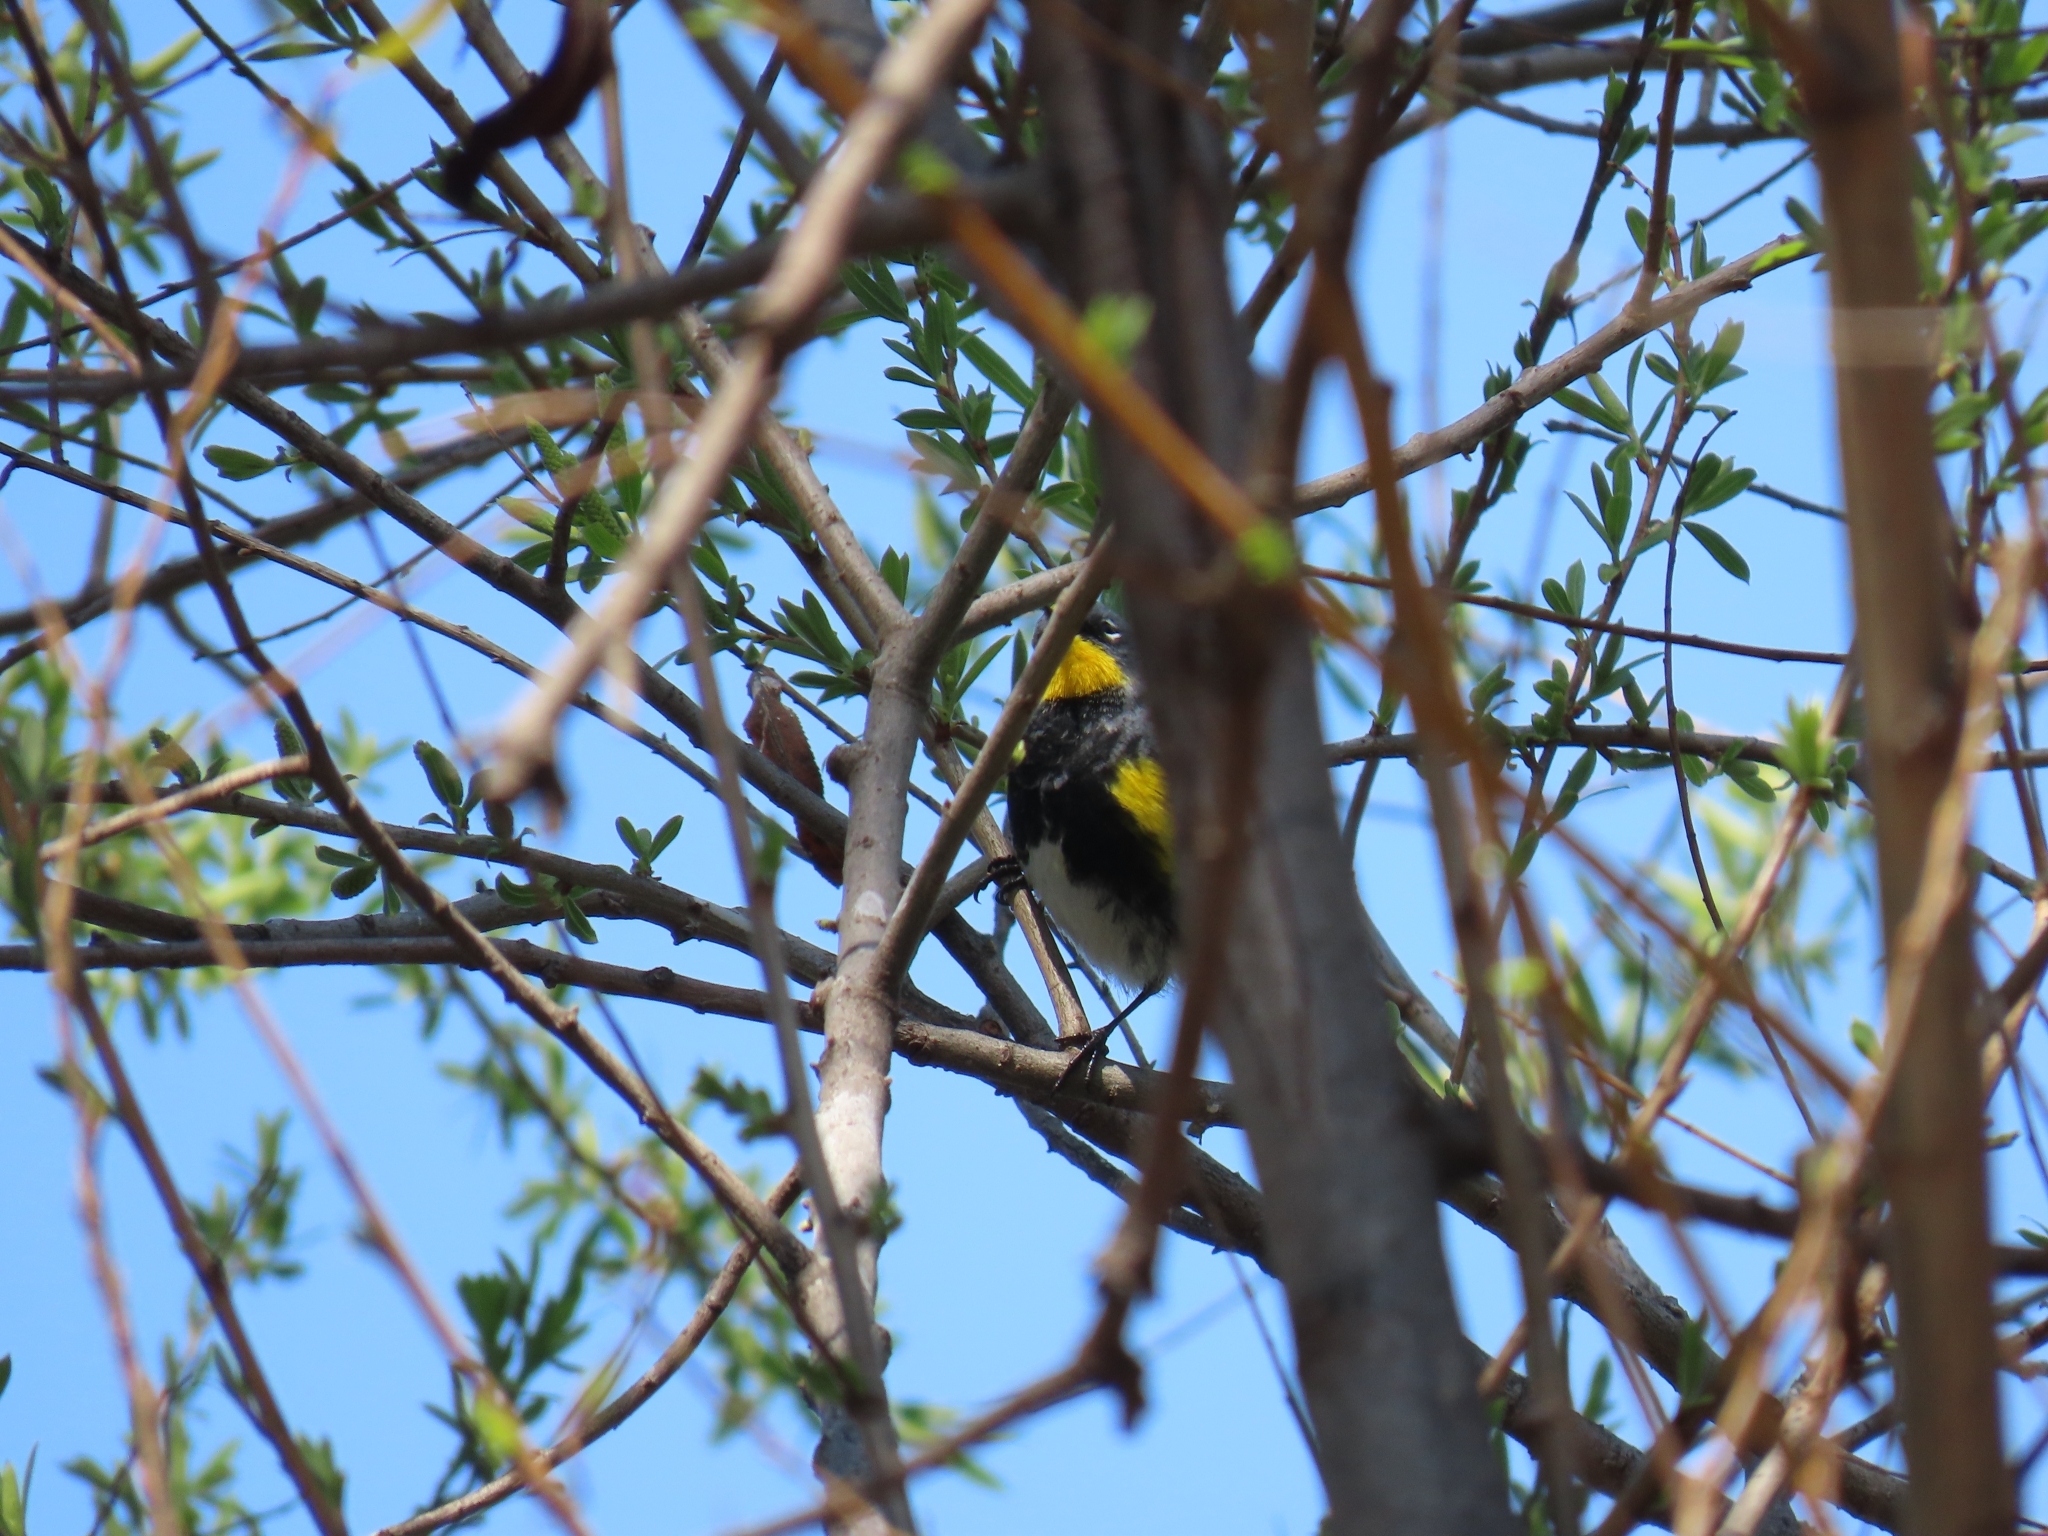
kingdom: Animalia
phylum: Chordata
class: Aves
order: Passeriformes
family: Parulidae
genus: Setophaga
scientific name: Setophaga auduboni
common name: Audubon's warbler
